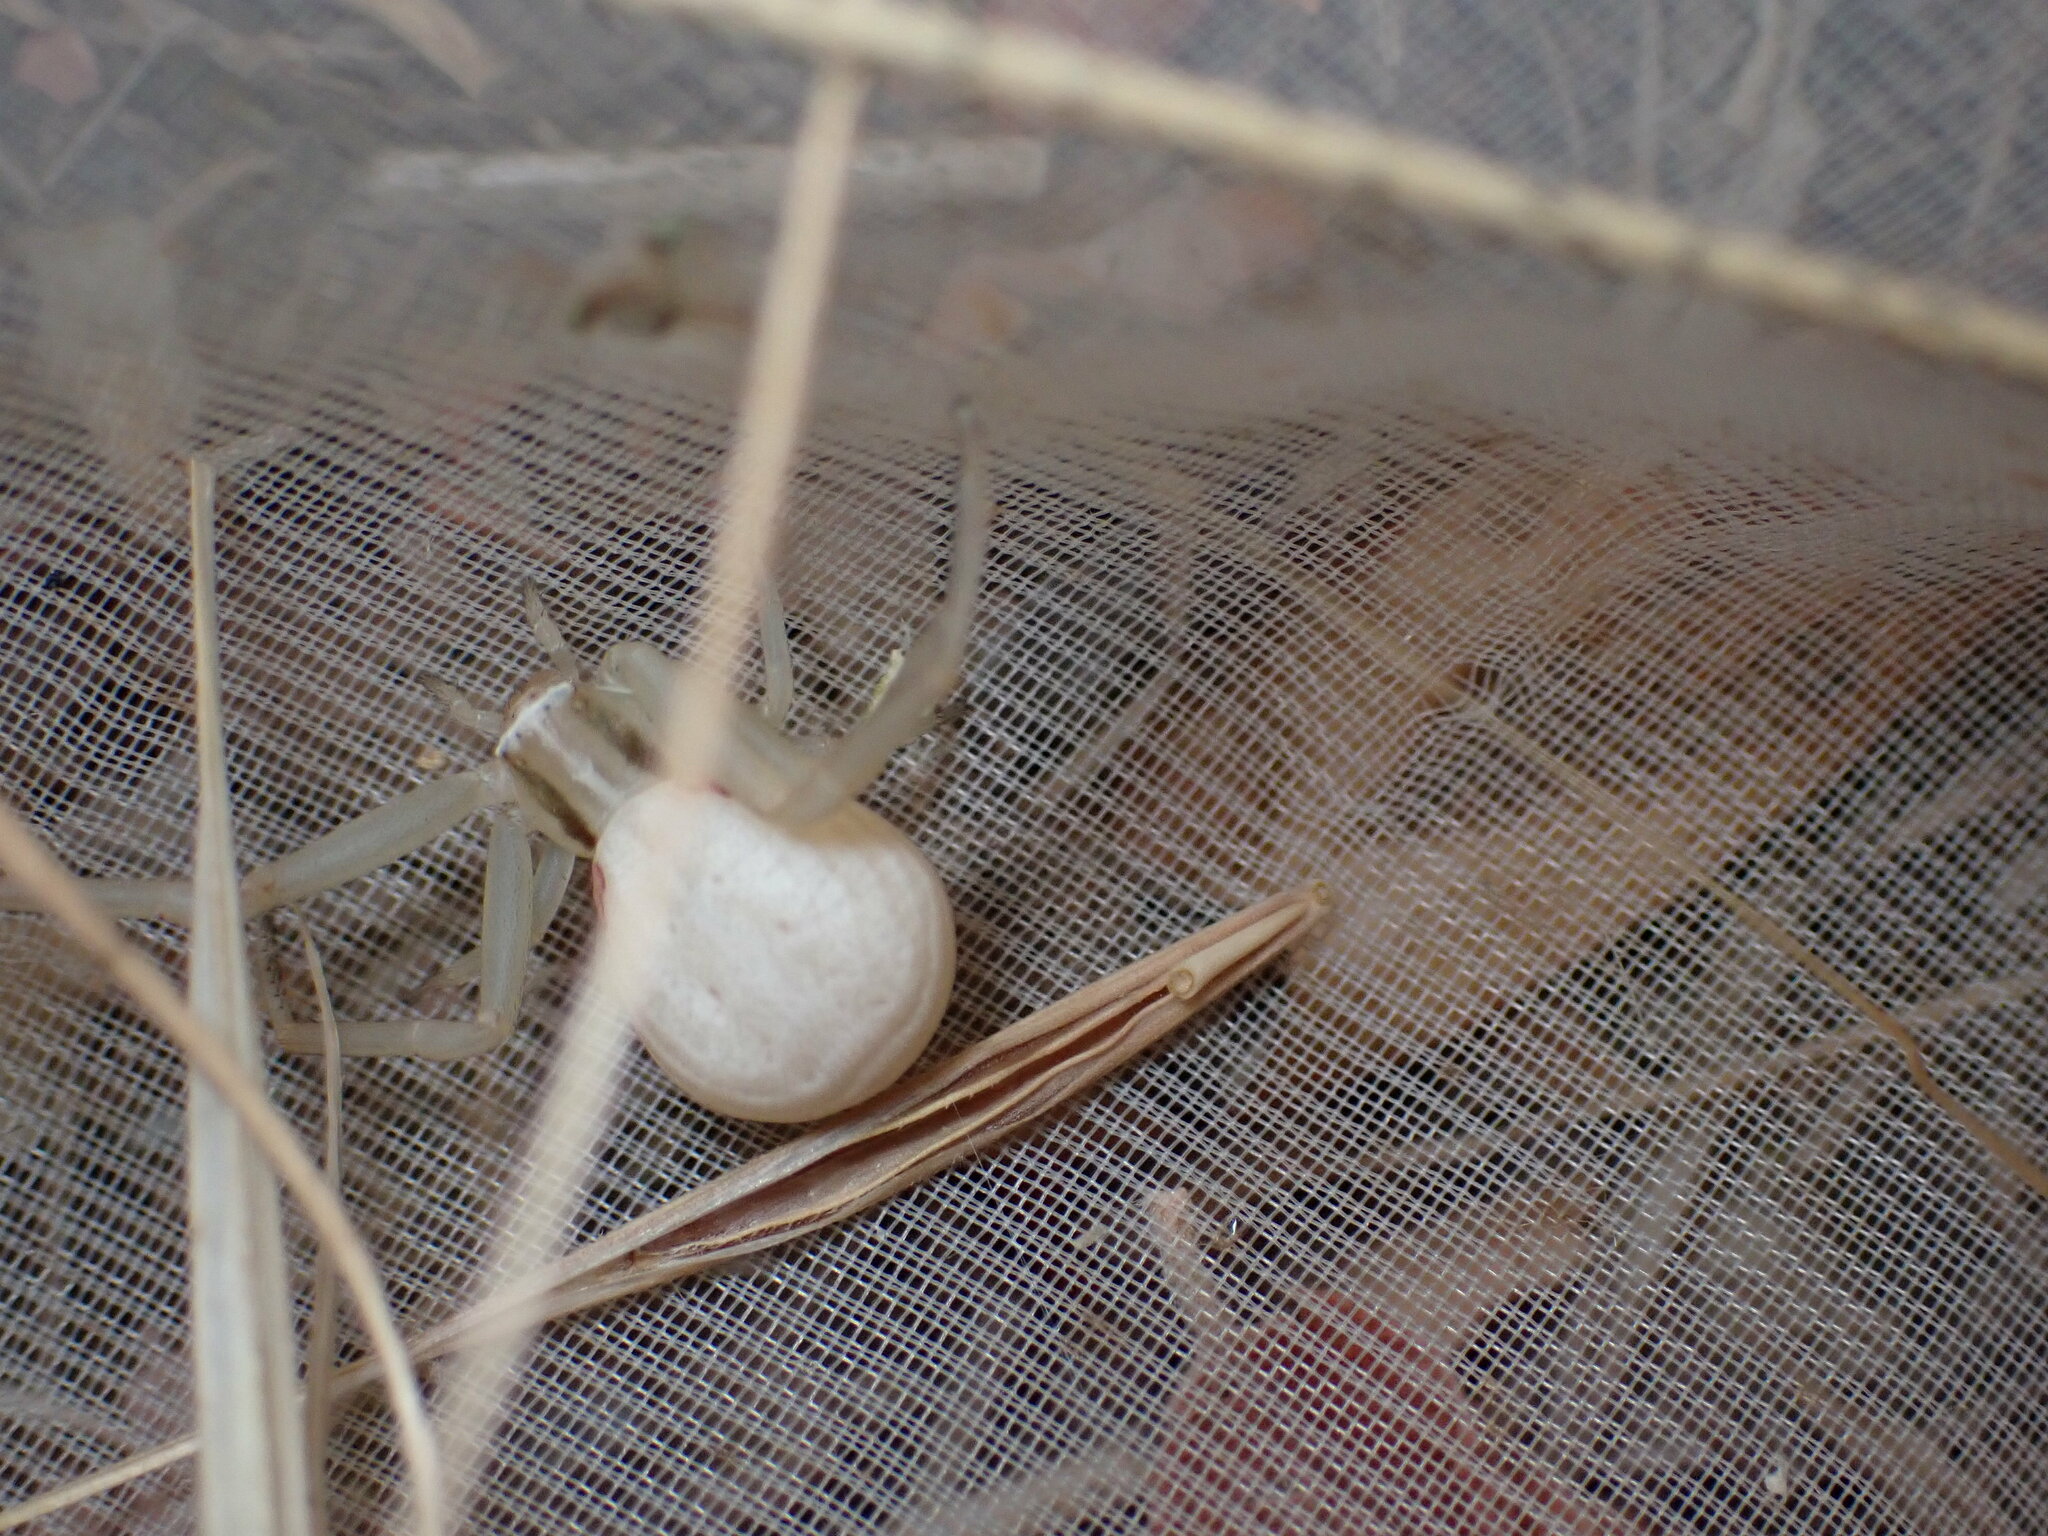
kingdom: Animalia
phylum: Arthropoda
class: Arachnida
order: Araneae
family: Thomisidae
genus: Runcinia
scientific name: Runcinia grammica
